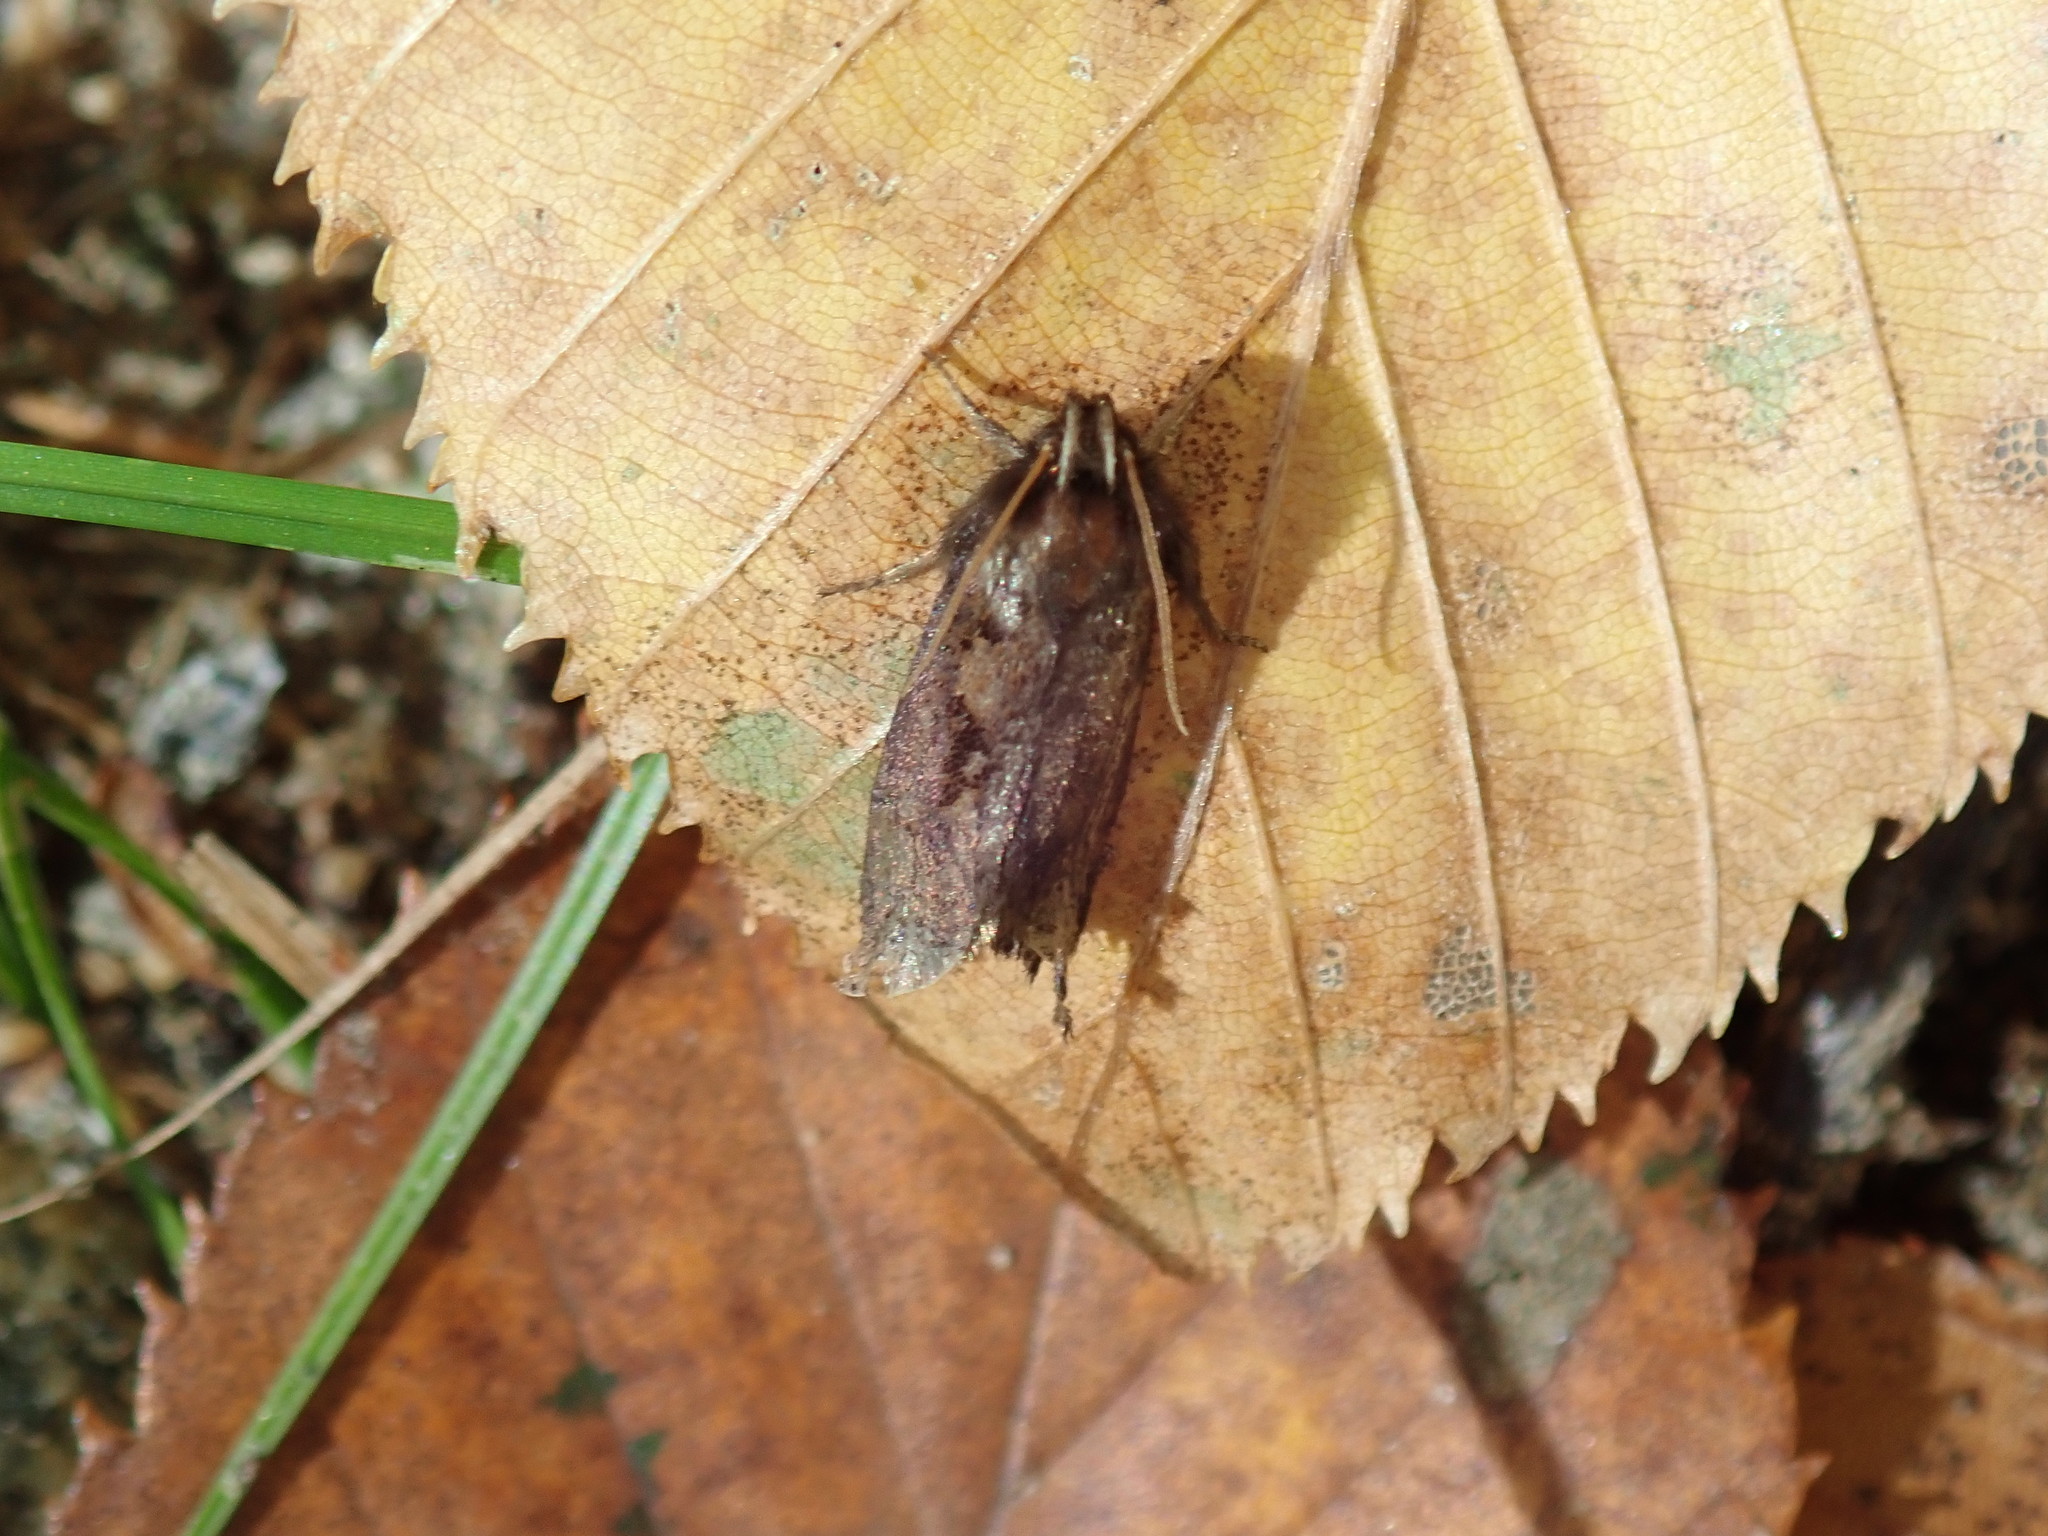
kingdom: Animalia
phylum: Arthropoda
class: Insecta
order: Lepidoptera
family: Tineidae
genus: Acrolophus
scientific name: Acrolophus mora
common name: Dark acrolophus
